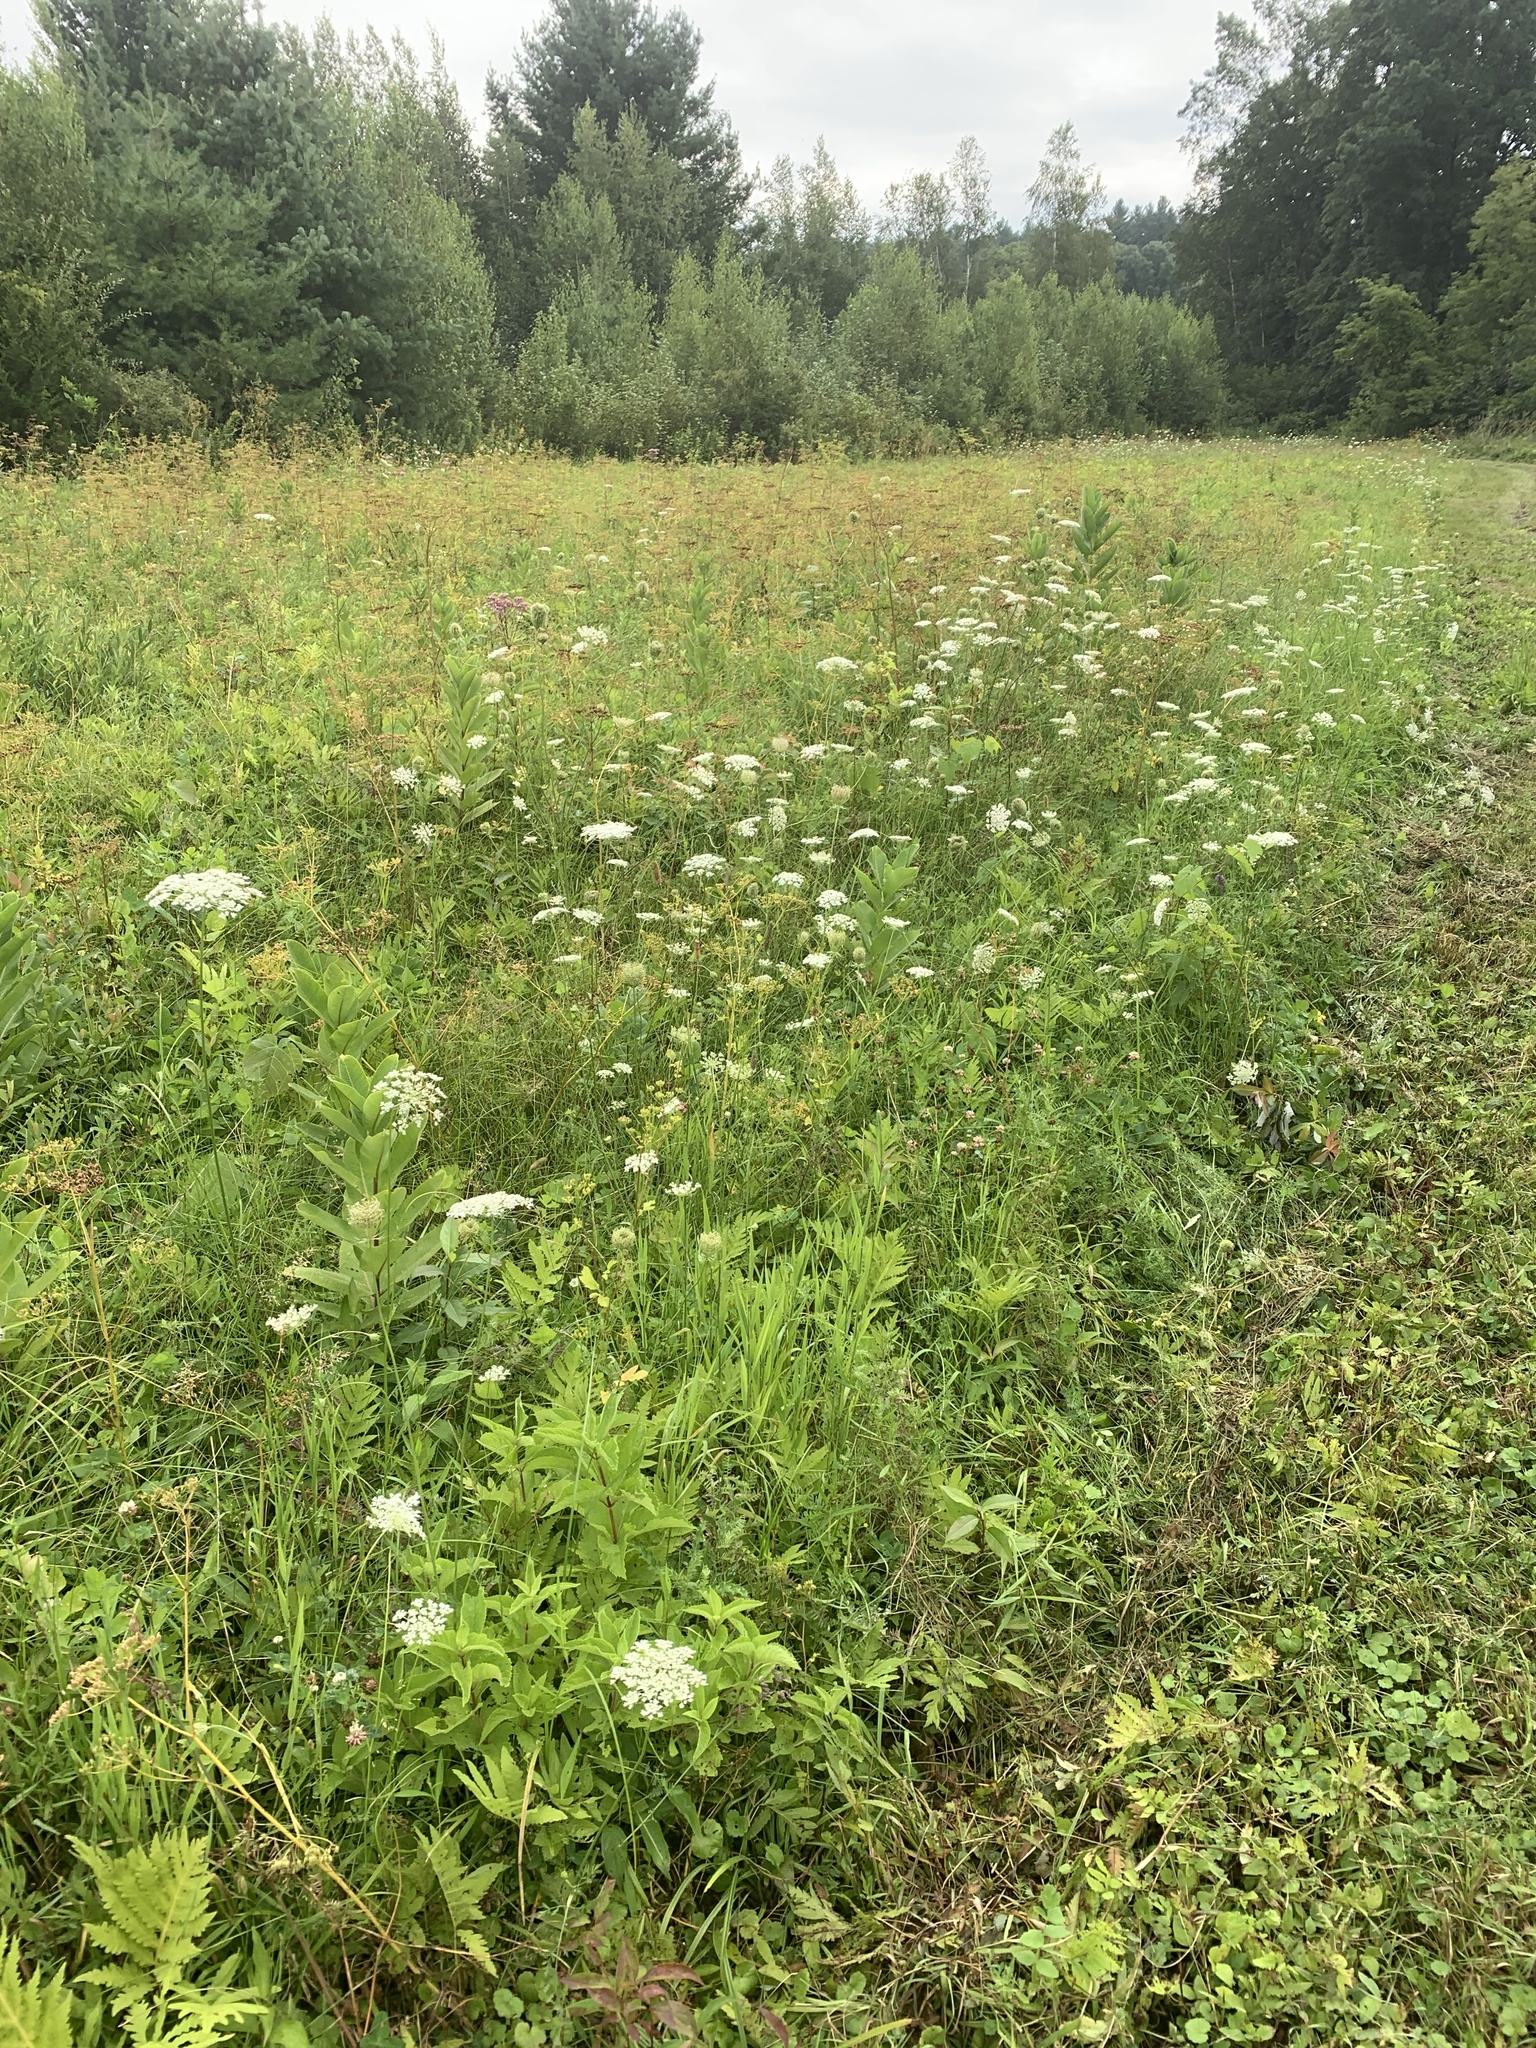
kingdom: Plantae
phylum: Tracheophyta
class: Magnoliopsida
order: Apiales
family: Apiaceae
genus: Daucus
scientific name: Daucus carota
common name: Wild carrot
